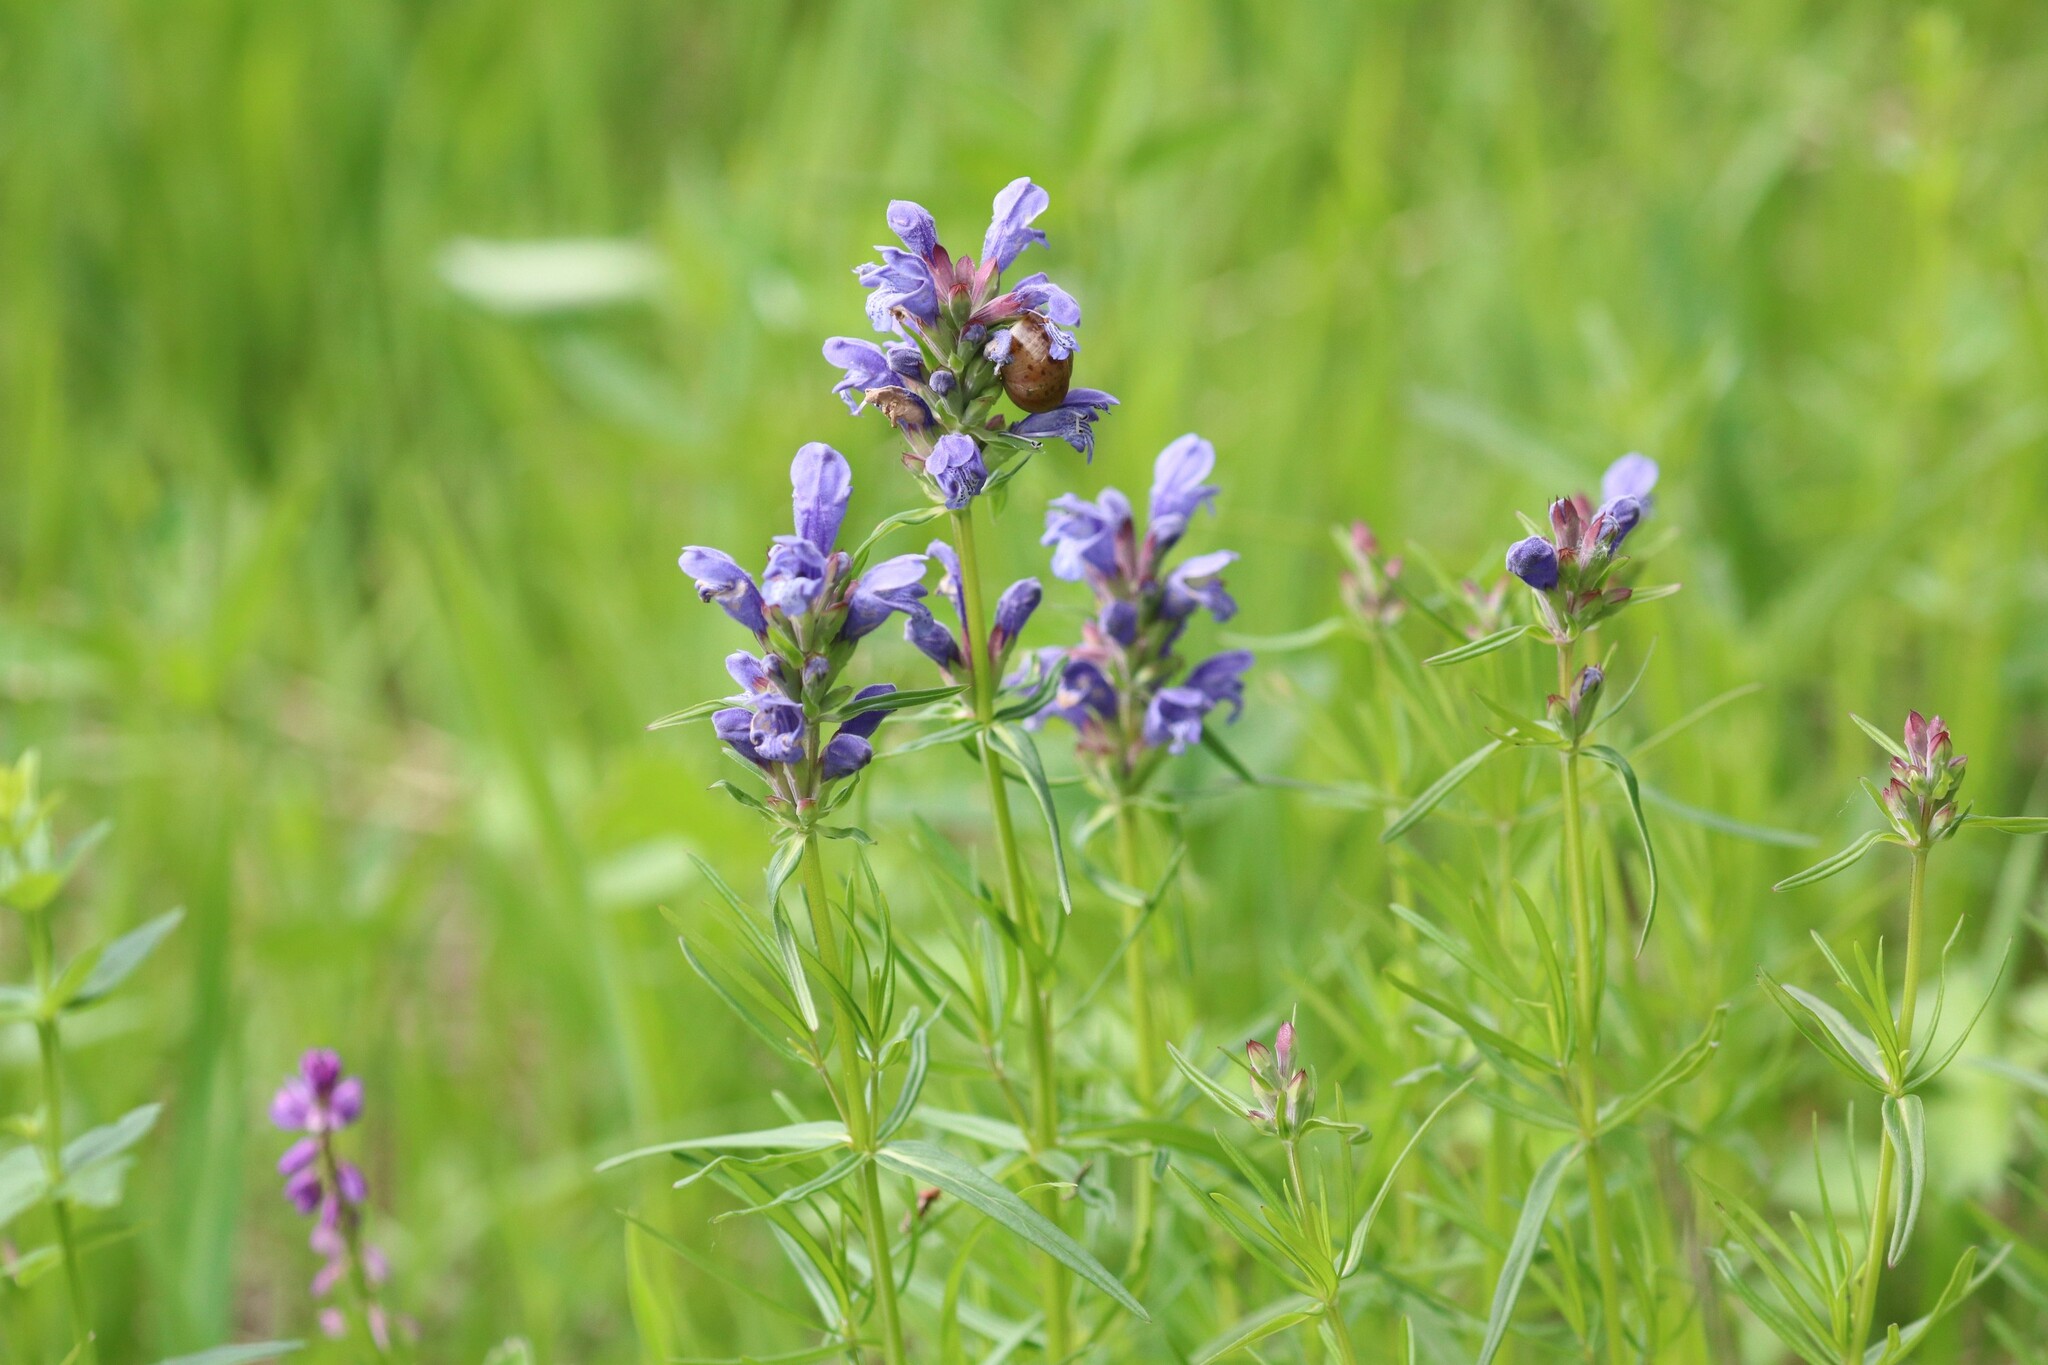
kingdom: Plantae
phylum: Tracheophyta
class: Magnoliopsida
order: Lamiales
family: Lamiaceae
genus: Dracocephalum
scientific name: Dracocephalum ruyschiana
